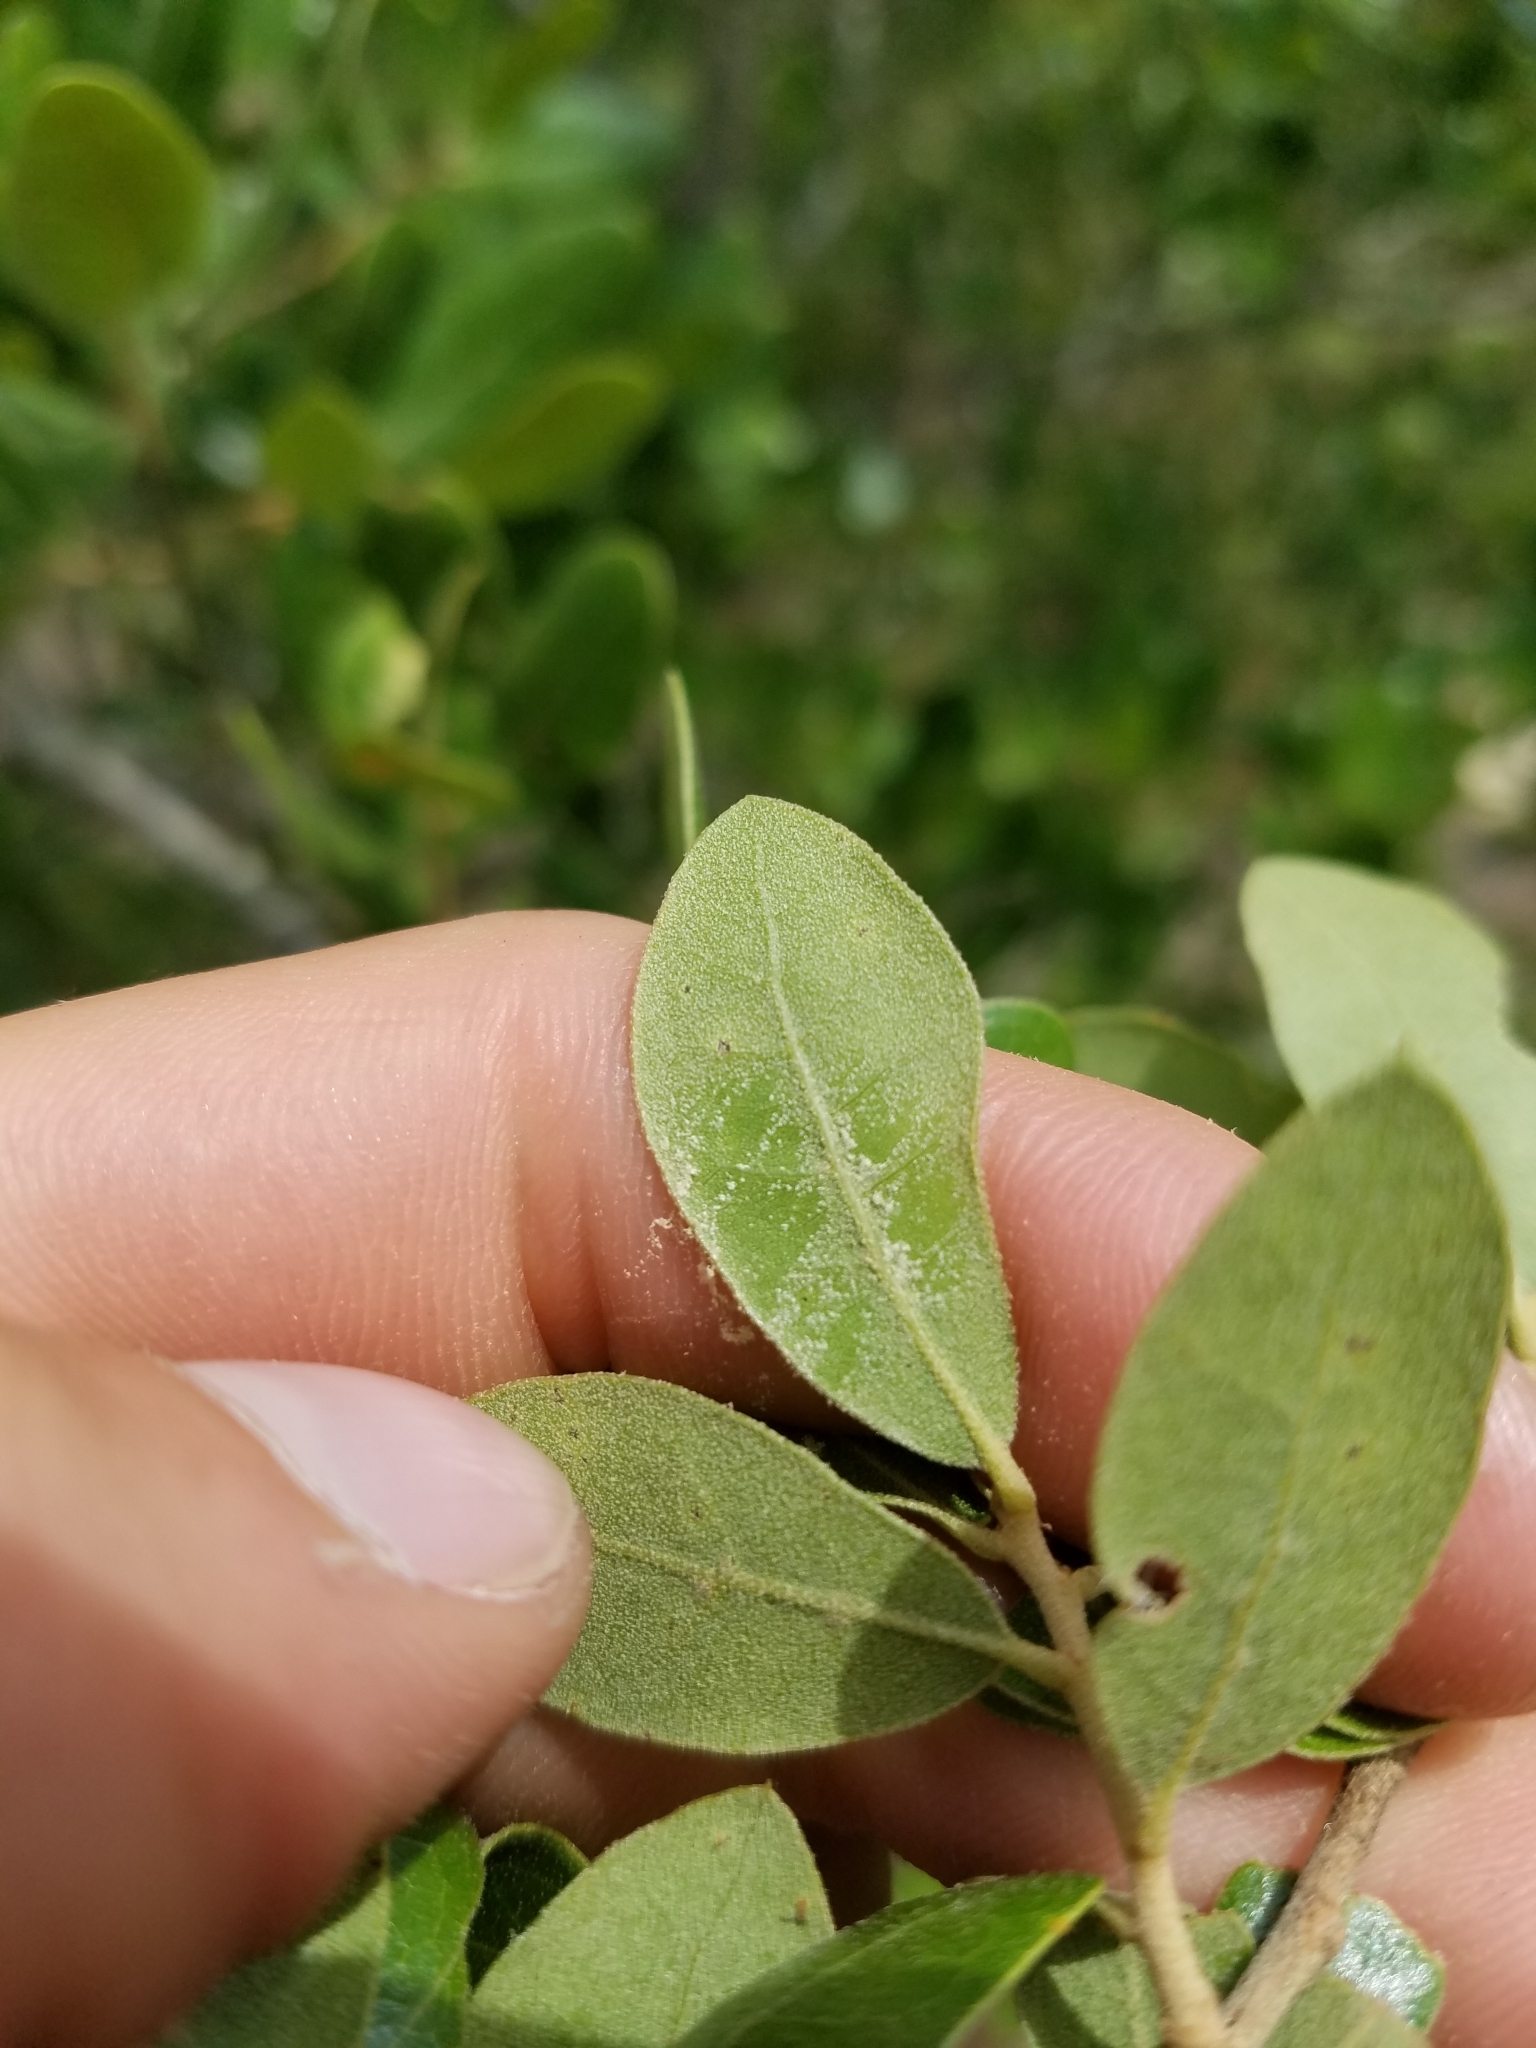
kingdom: Plantae
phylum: Tracheophyta
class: Magnoliopsida
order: Fagales
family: Fagaceae
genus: Quercus
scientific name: Quercus myrtifolia
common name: Myrtle oak
